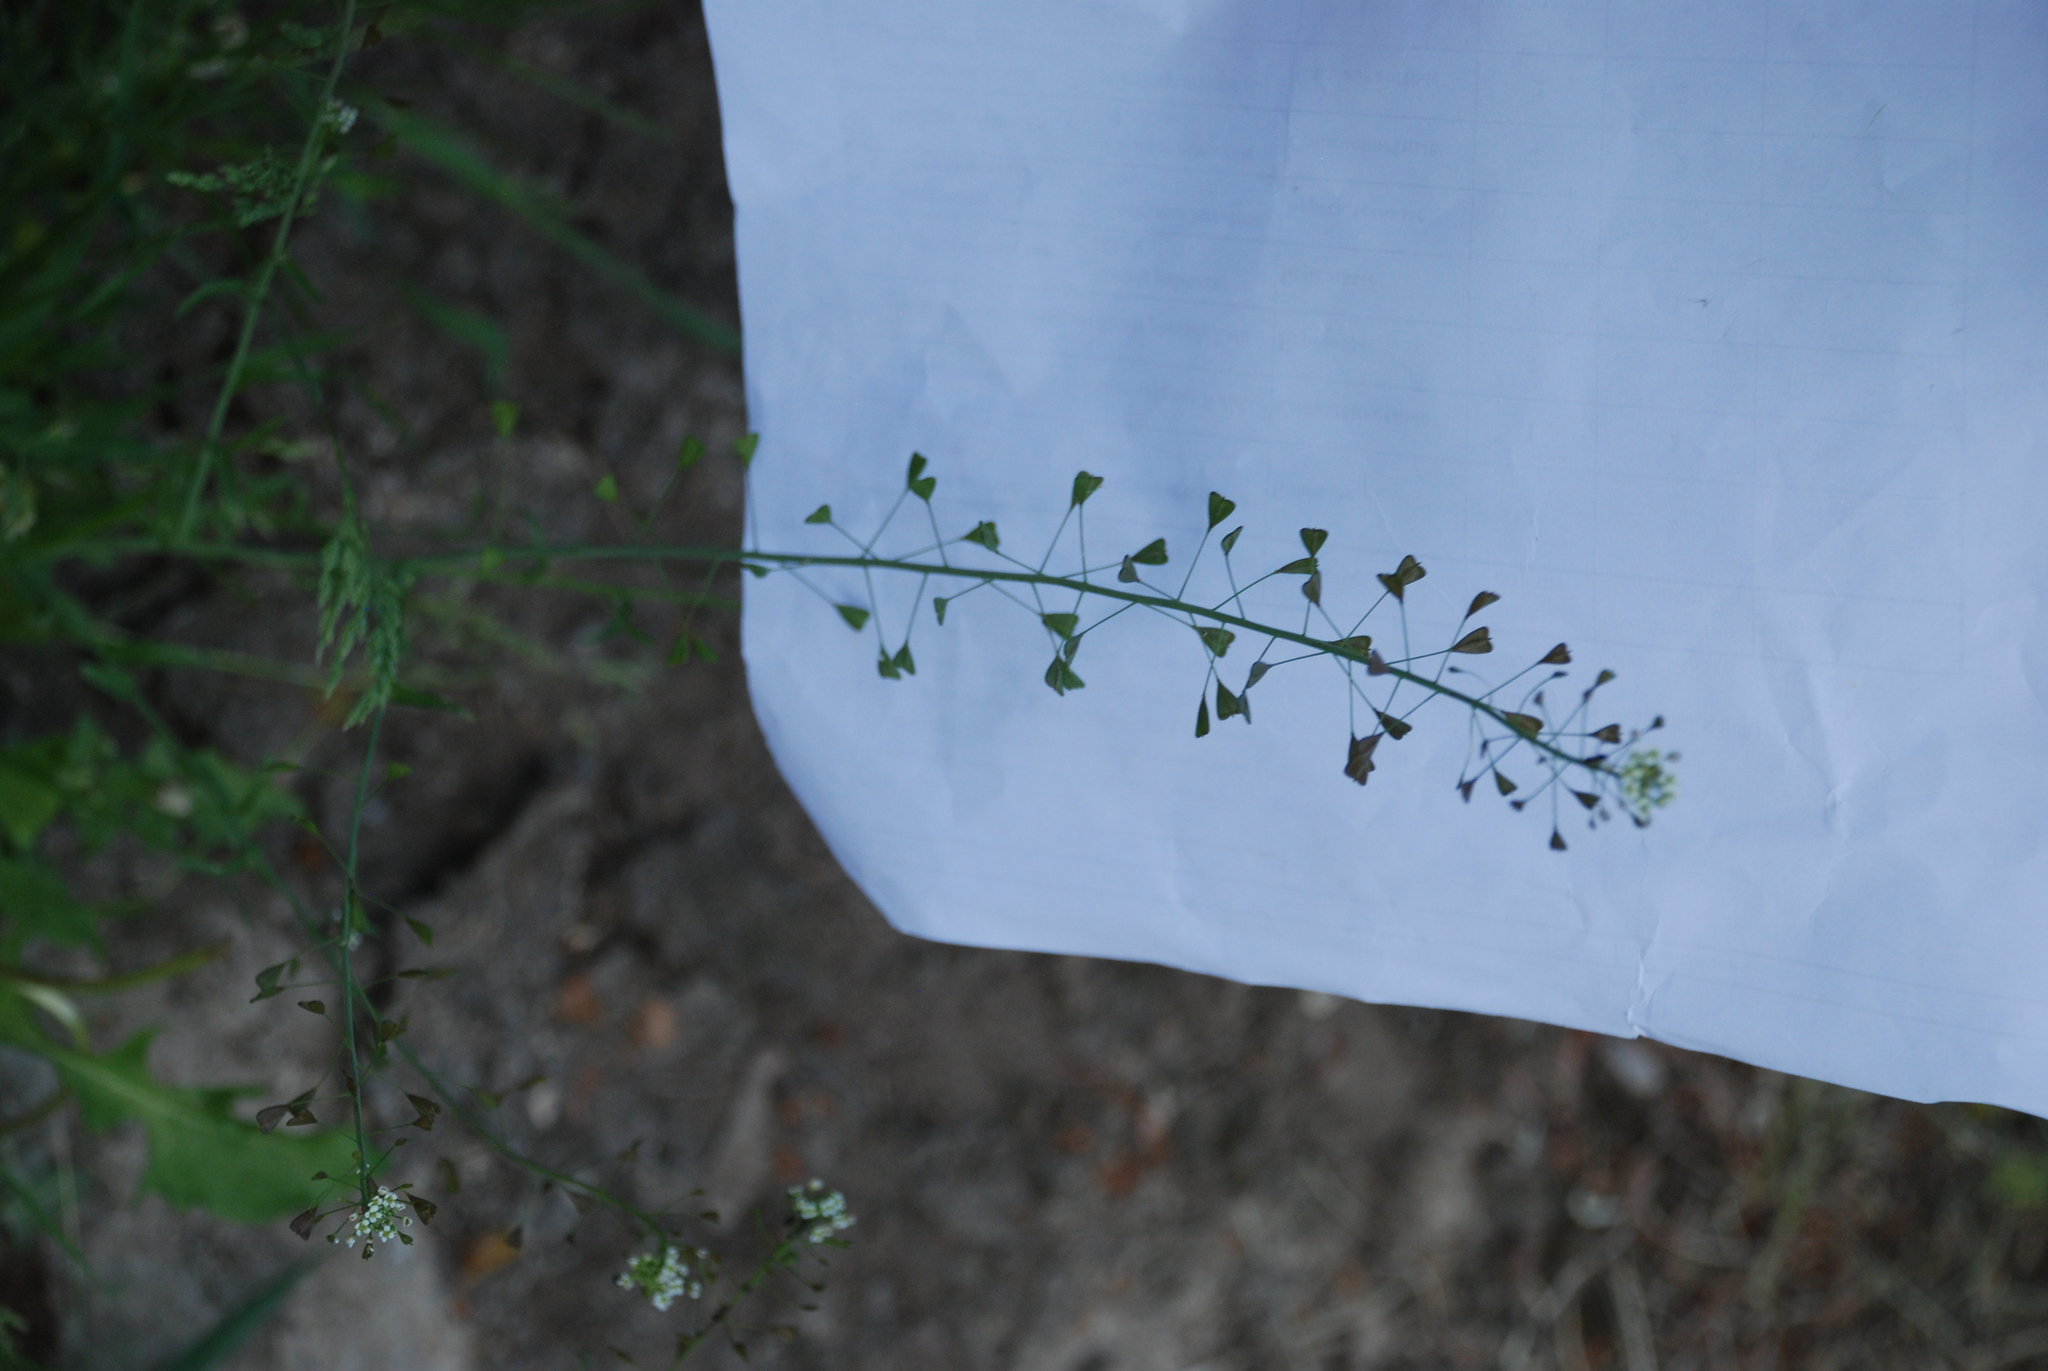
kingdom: Plantae
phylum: Tracheophyta
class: Magnoliopsida
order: Brassicales
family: Brassicaceae
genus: Capsella
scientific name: Capsella bursa-pastoris
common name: Shepherd's purse
